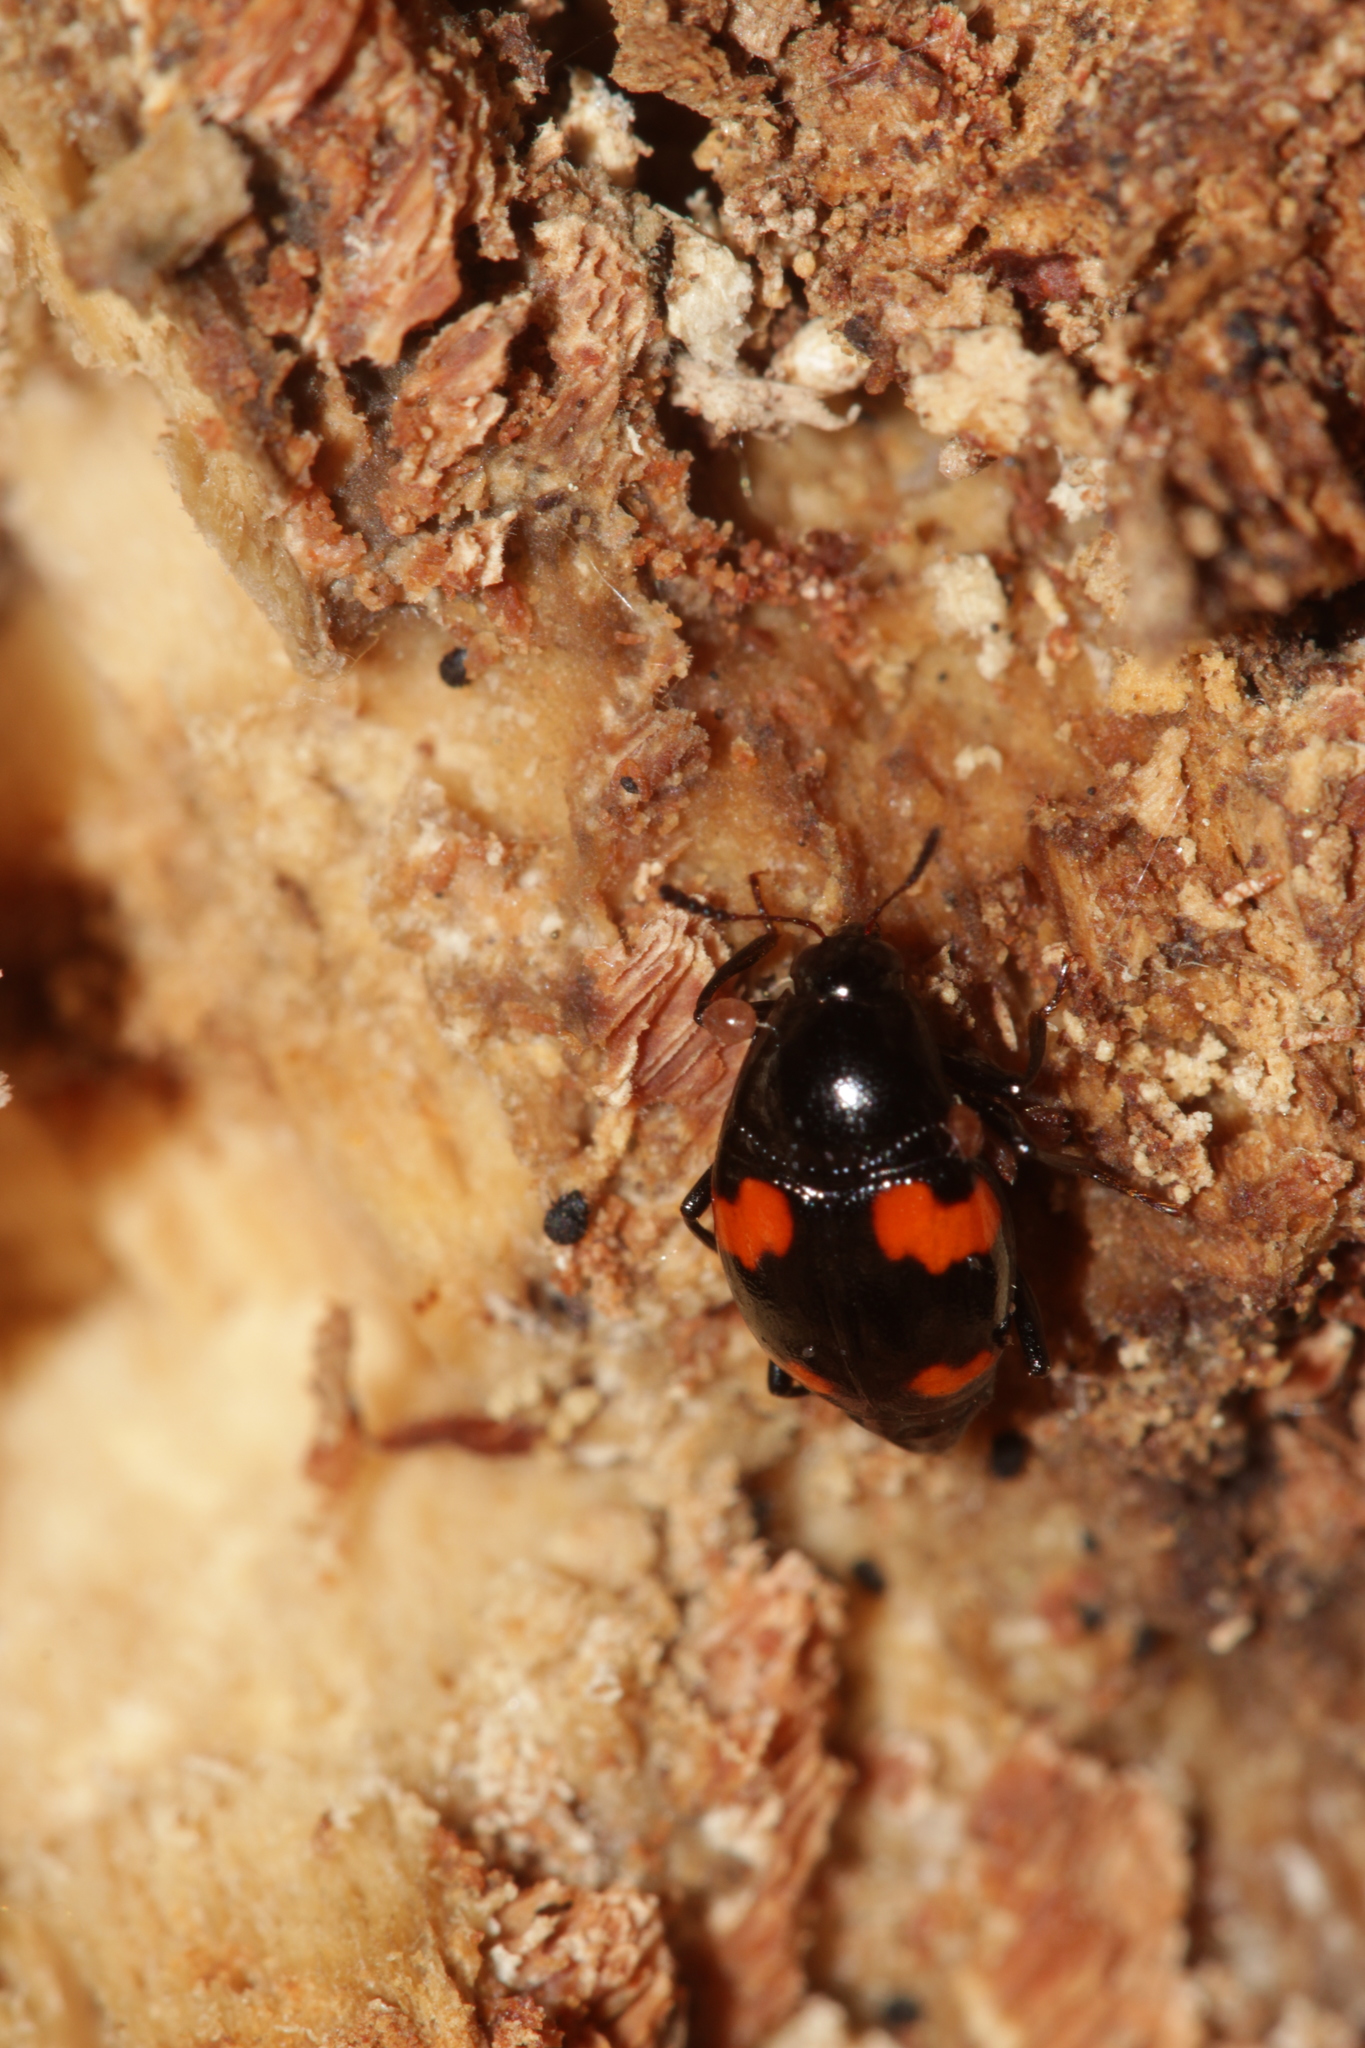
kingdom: Animalia
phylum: Arthropoda
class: Insecta
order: Coleoptera
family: Staphylinidae
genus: Scaphidium
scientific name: Scaphidium quadrimaculatum
